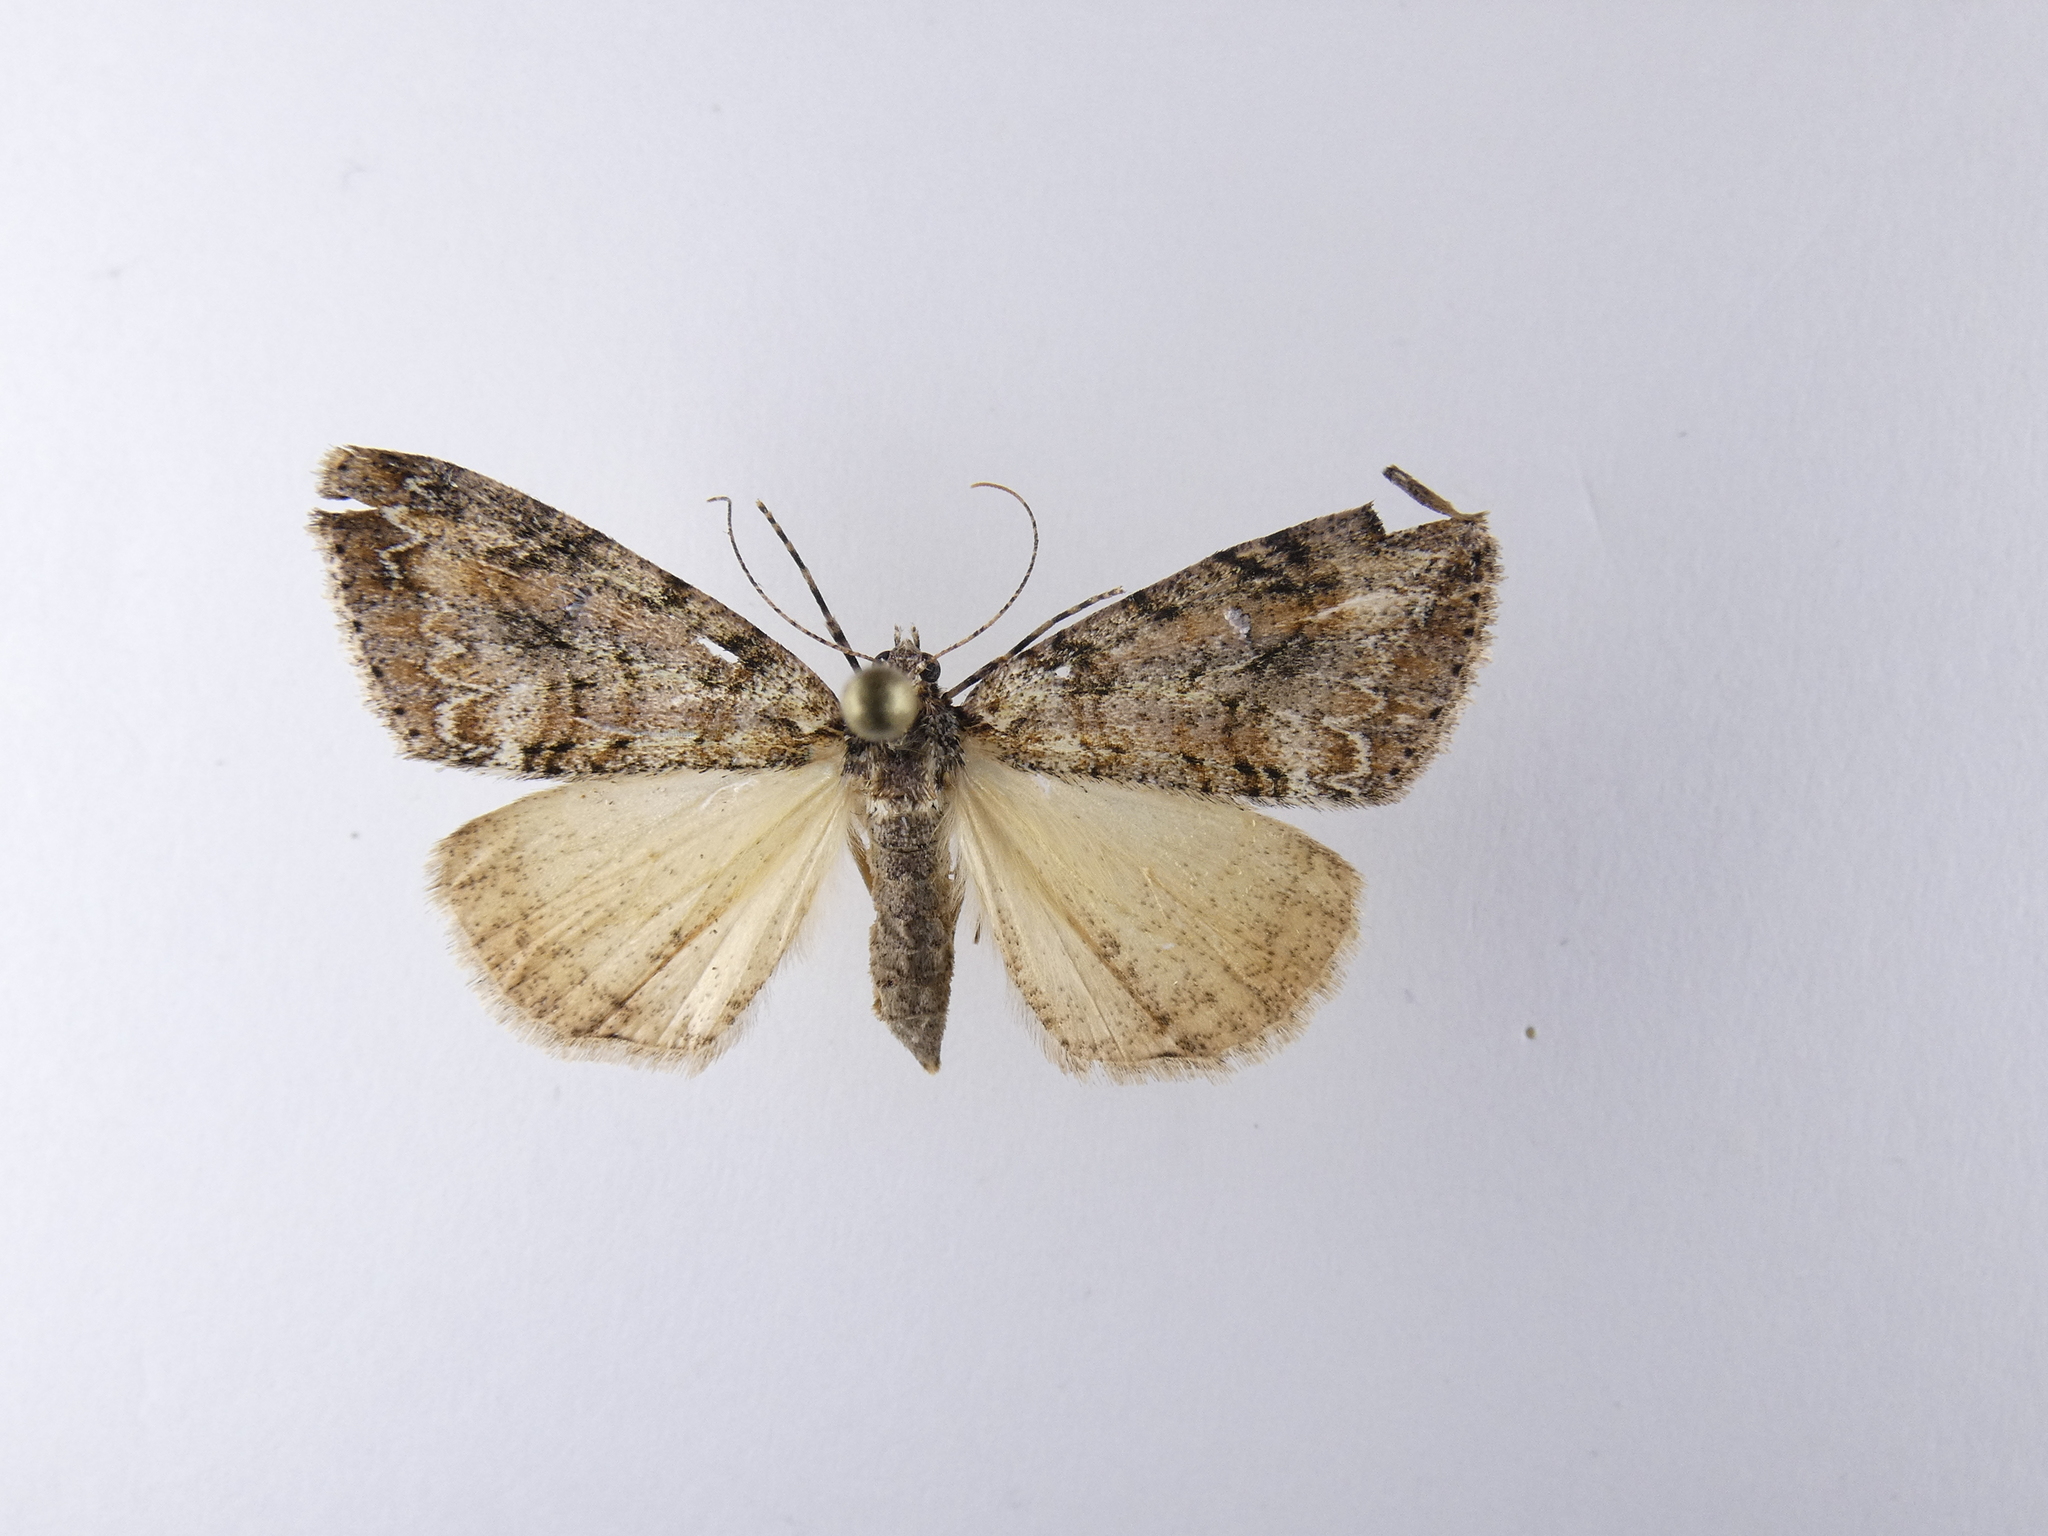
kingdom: Animalia
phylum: Arthropoda
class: Insecta
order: Lepidoptera
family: Geometridae
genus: Pseudocoremia
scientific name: Pseudocoremia suavis
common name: Common forest looper
